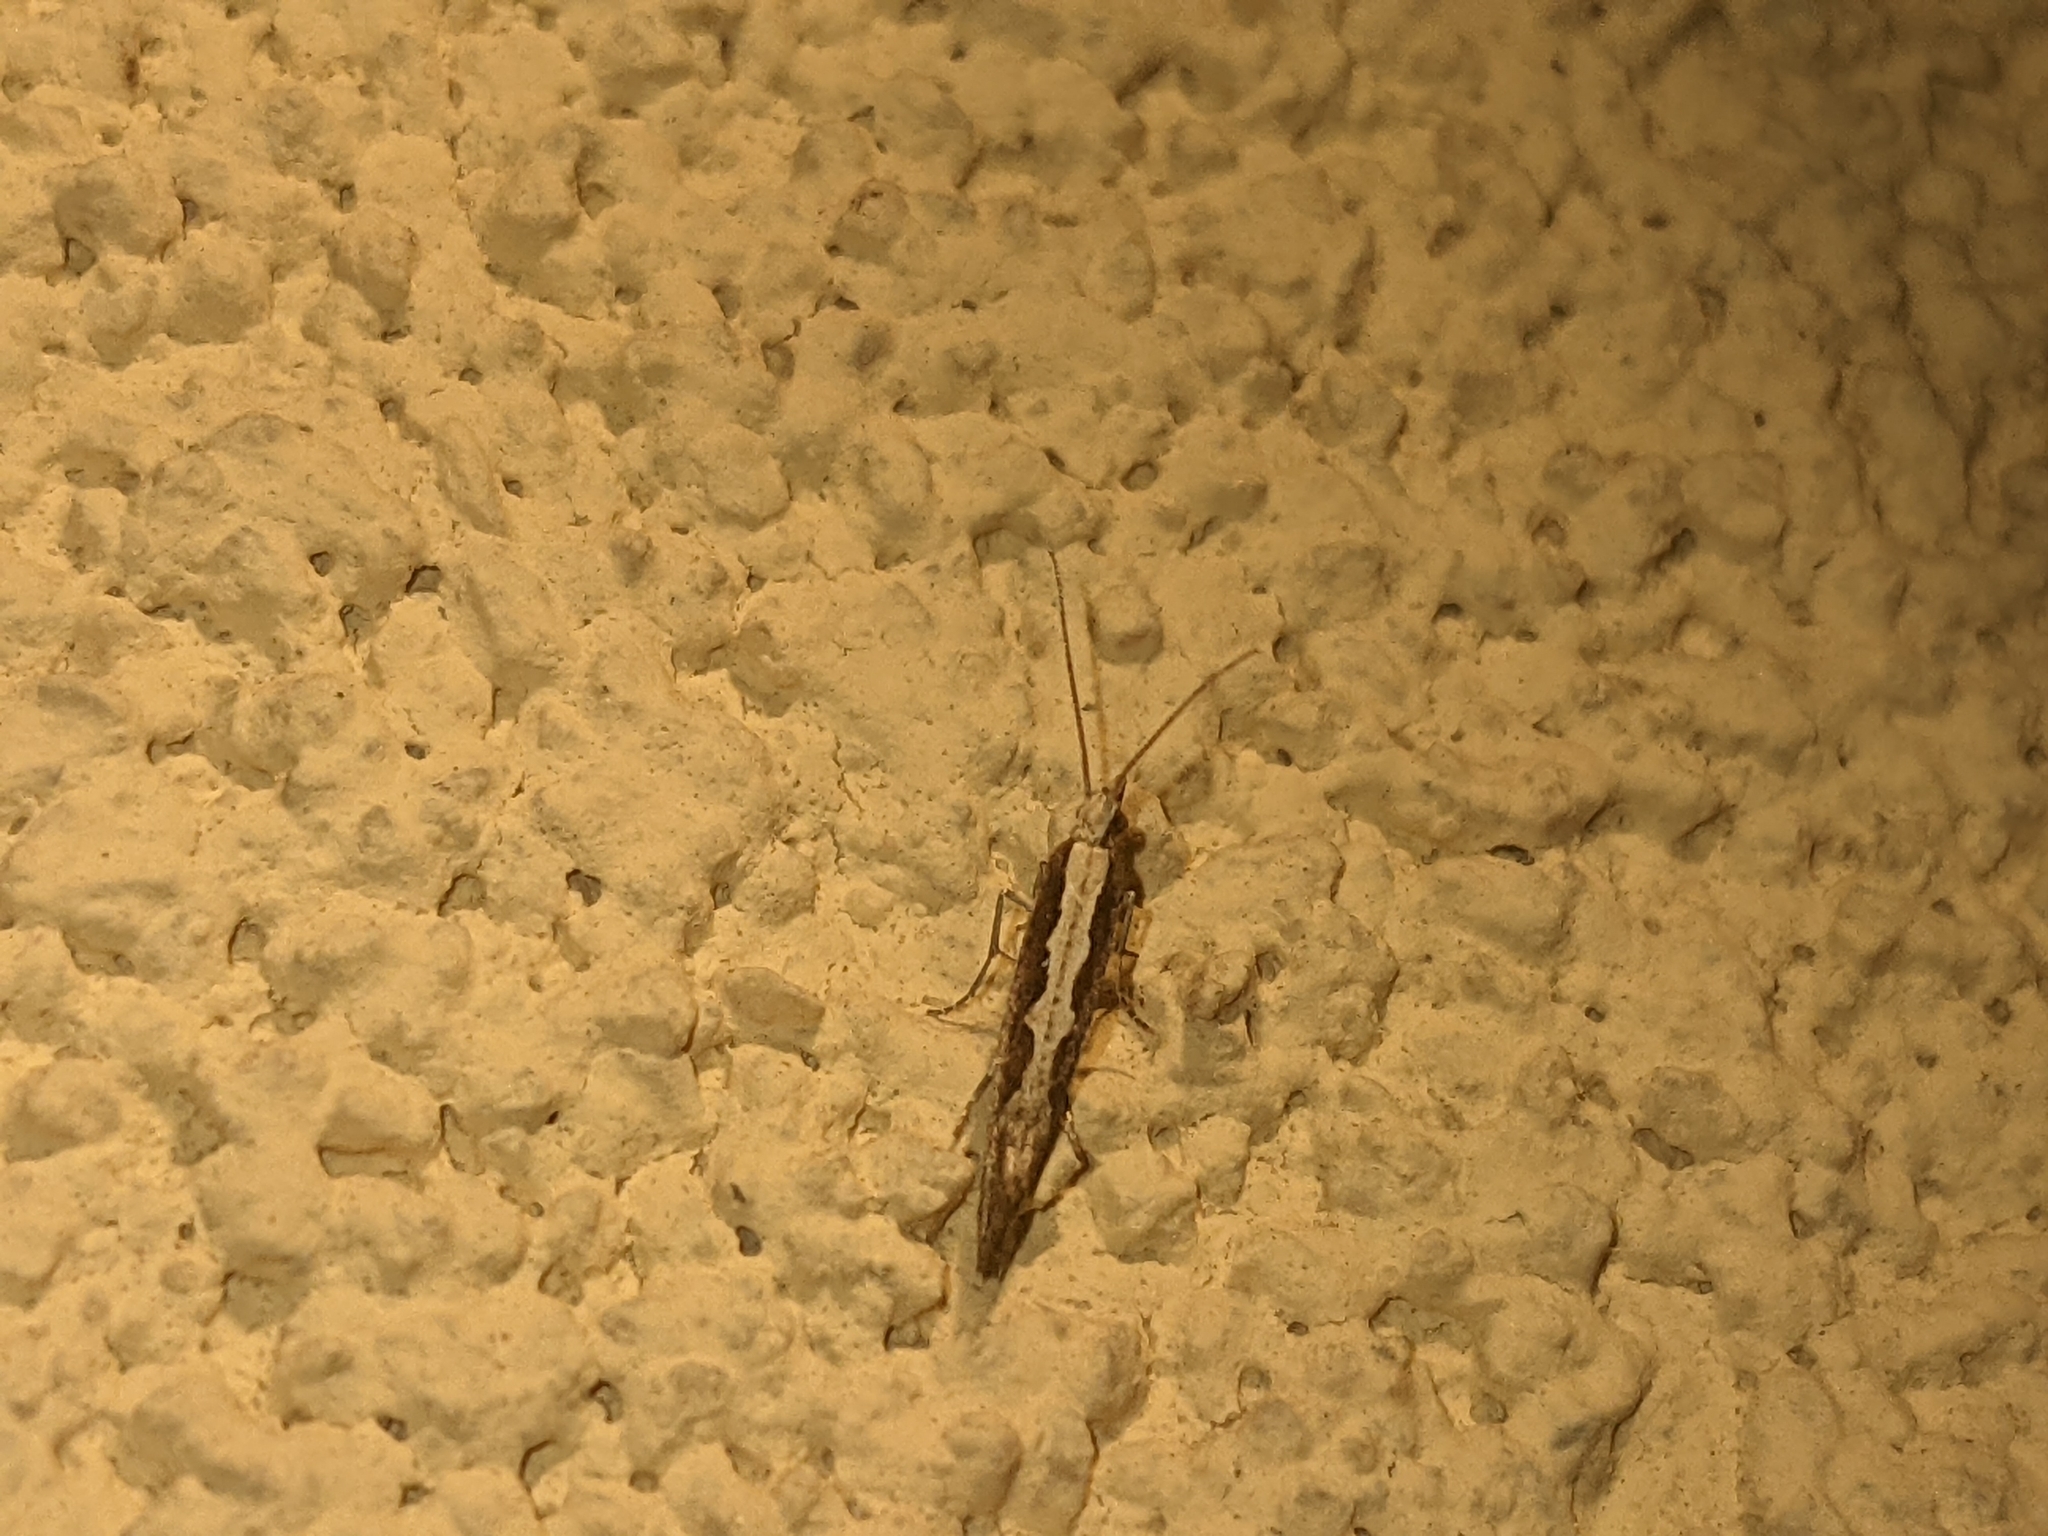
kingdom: Animalia
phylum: Arthropoda
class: Insecta
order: Lepidoptera
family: Plutellidae
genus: Plutella
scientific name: Plutella xylostella
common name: Diamond-back moth
